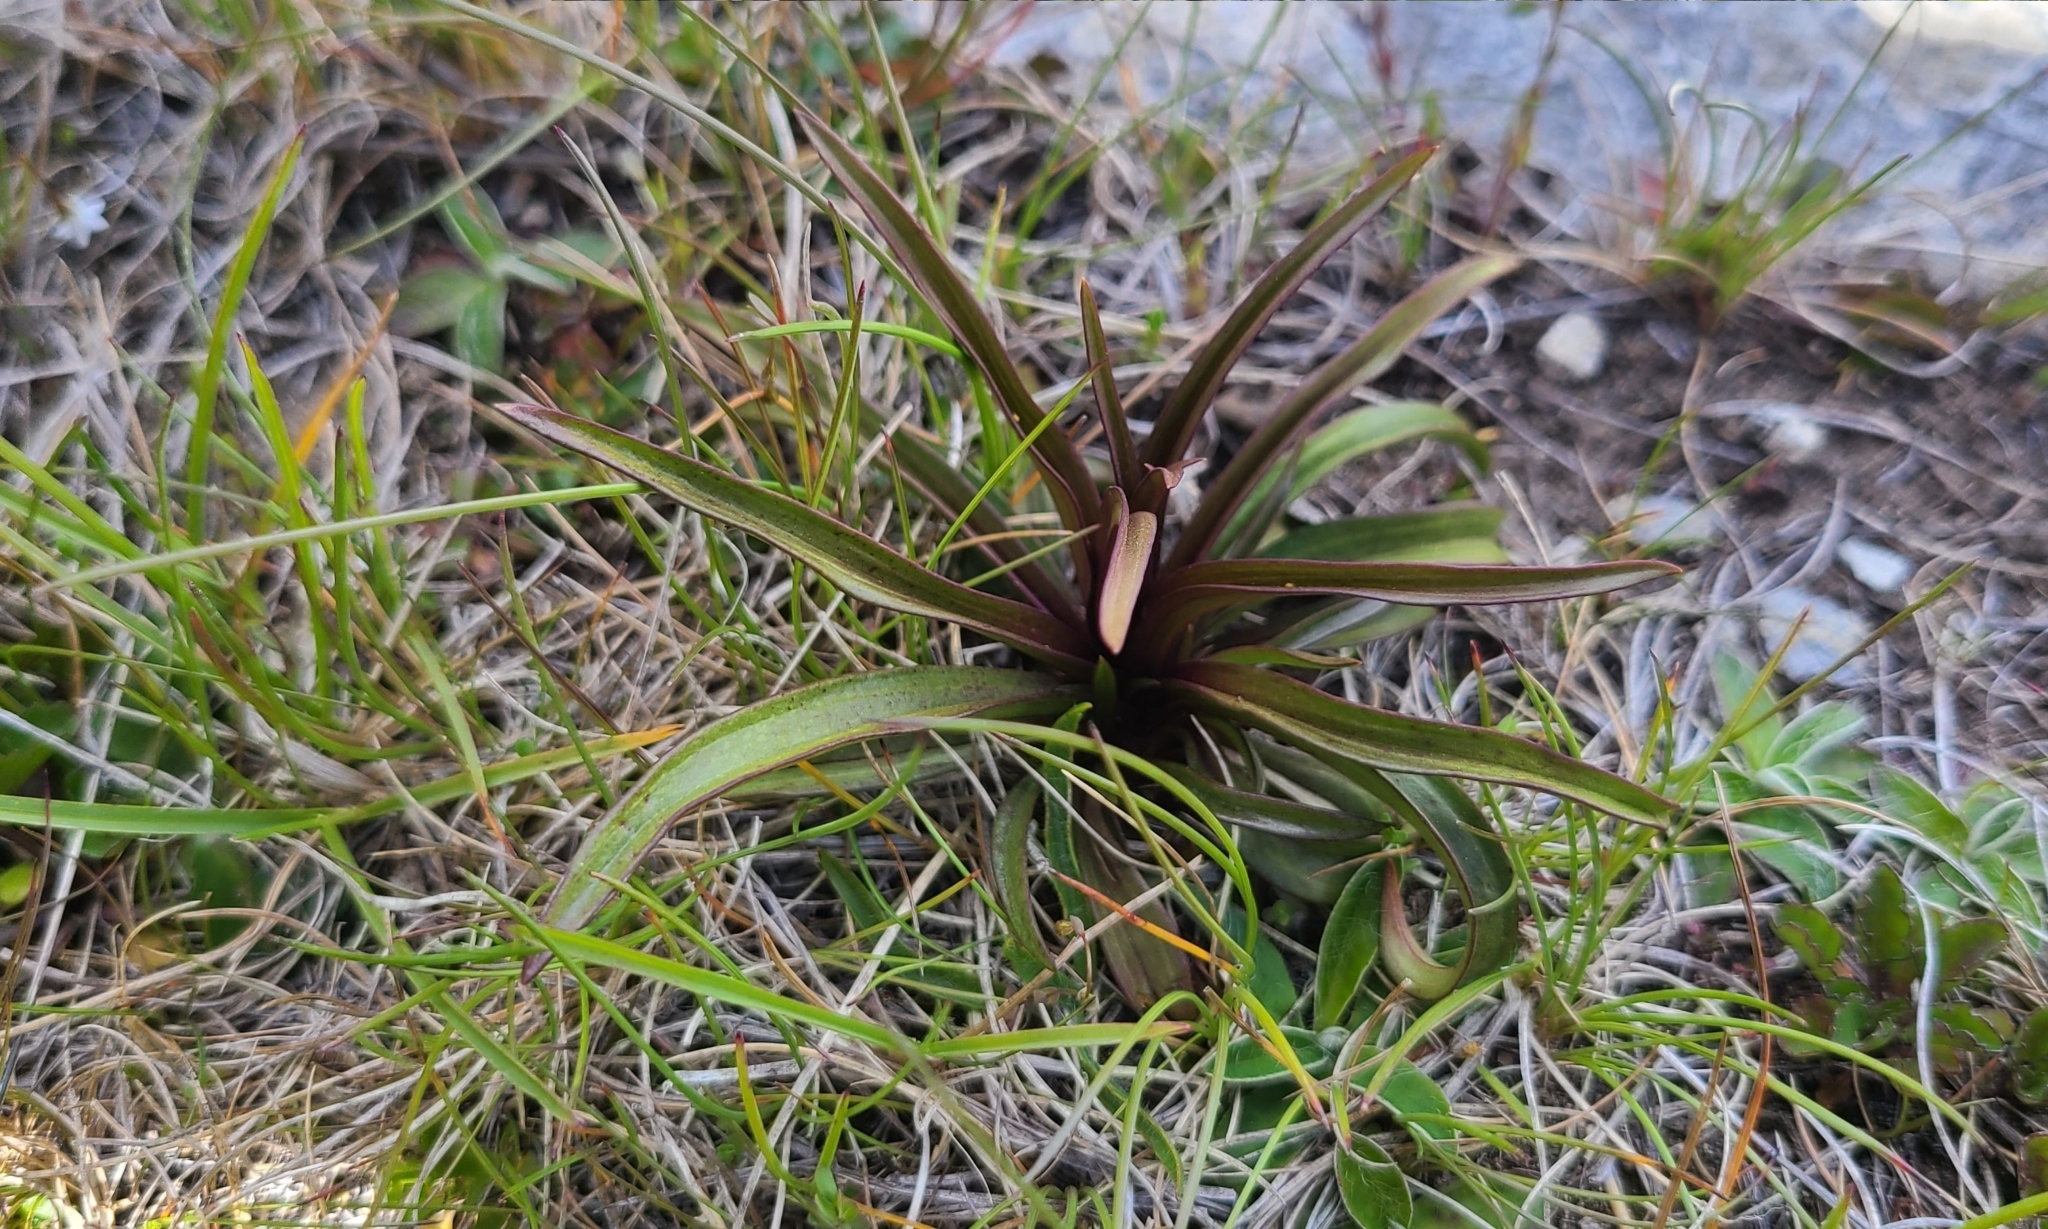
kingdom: Plantae
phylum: Tracheophyta
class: Magnoliopsida
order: Gentianales
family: Gentianaceae
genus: Gentianella
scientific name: Gentianella corymbifera
